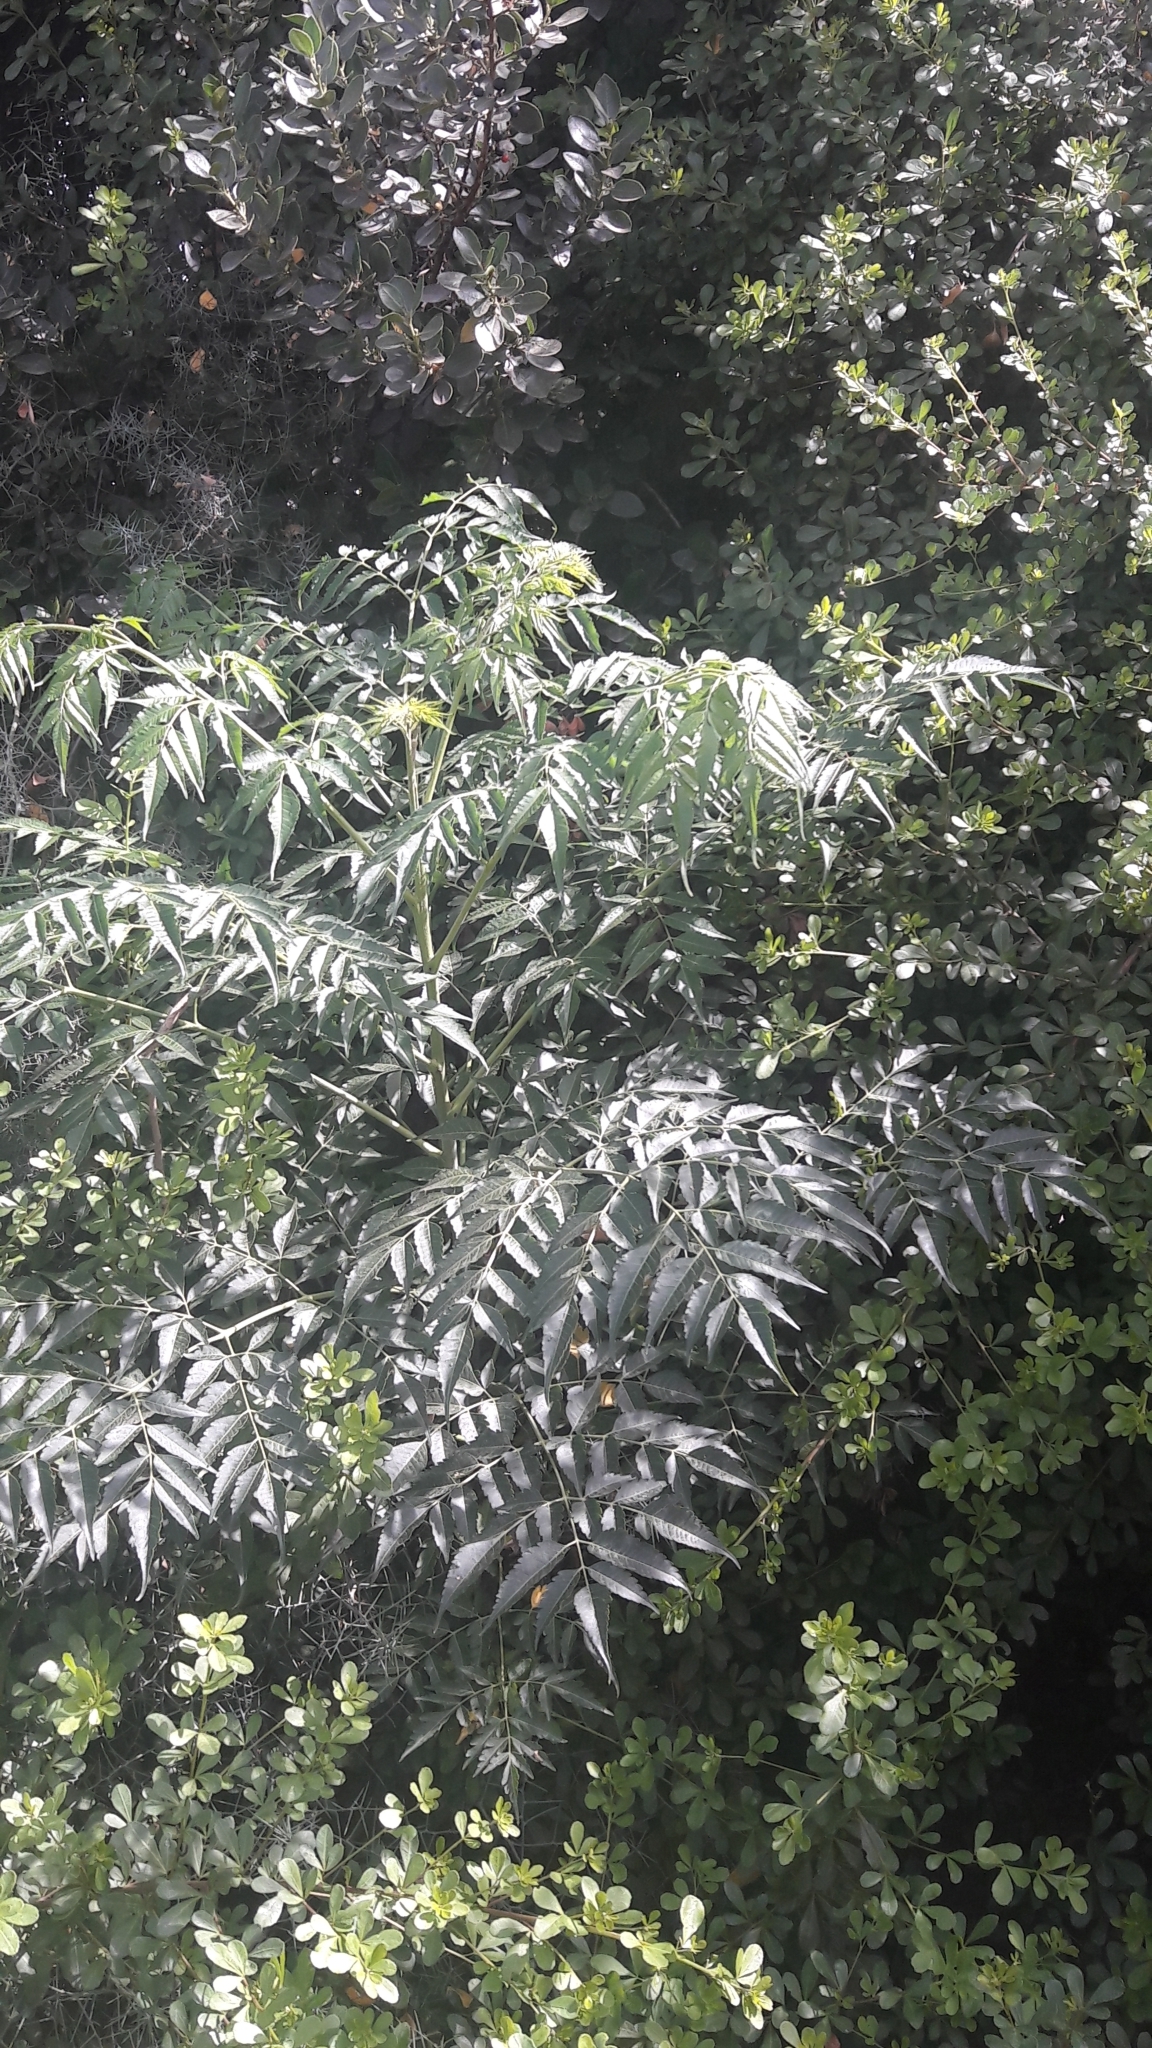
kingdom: Plantae
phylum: Tracheophyta
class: Magnoliopsida
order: Sapindales
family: Meliaceae
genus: Melia
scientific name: Melia azedarach
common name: Chinaberrytree
